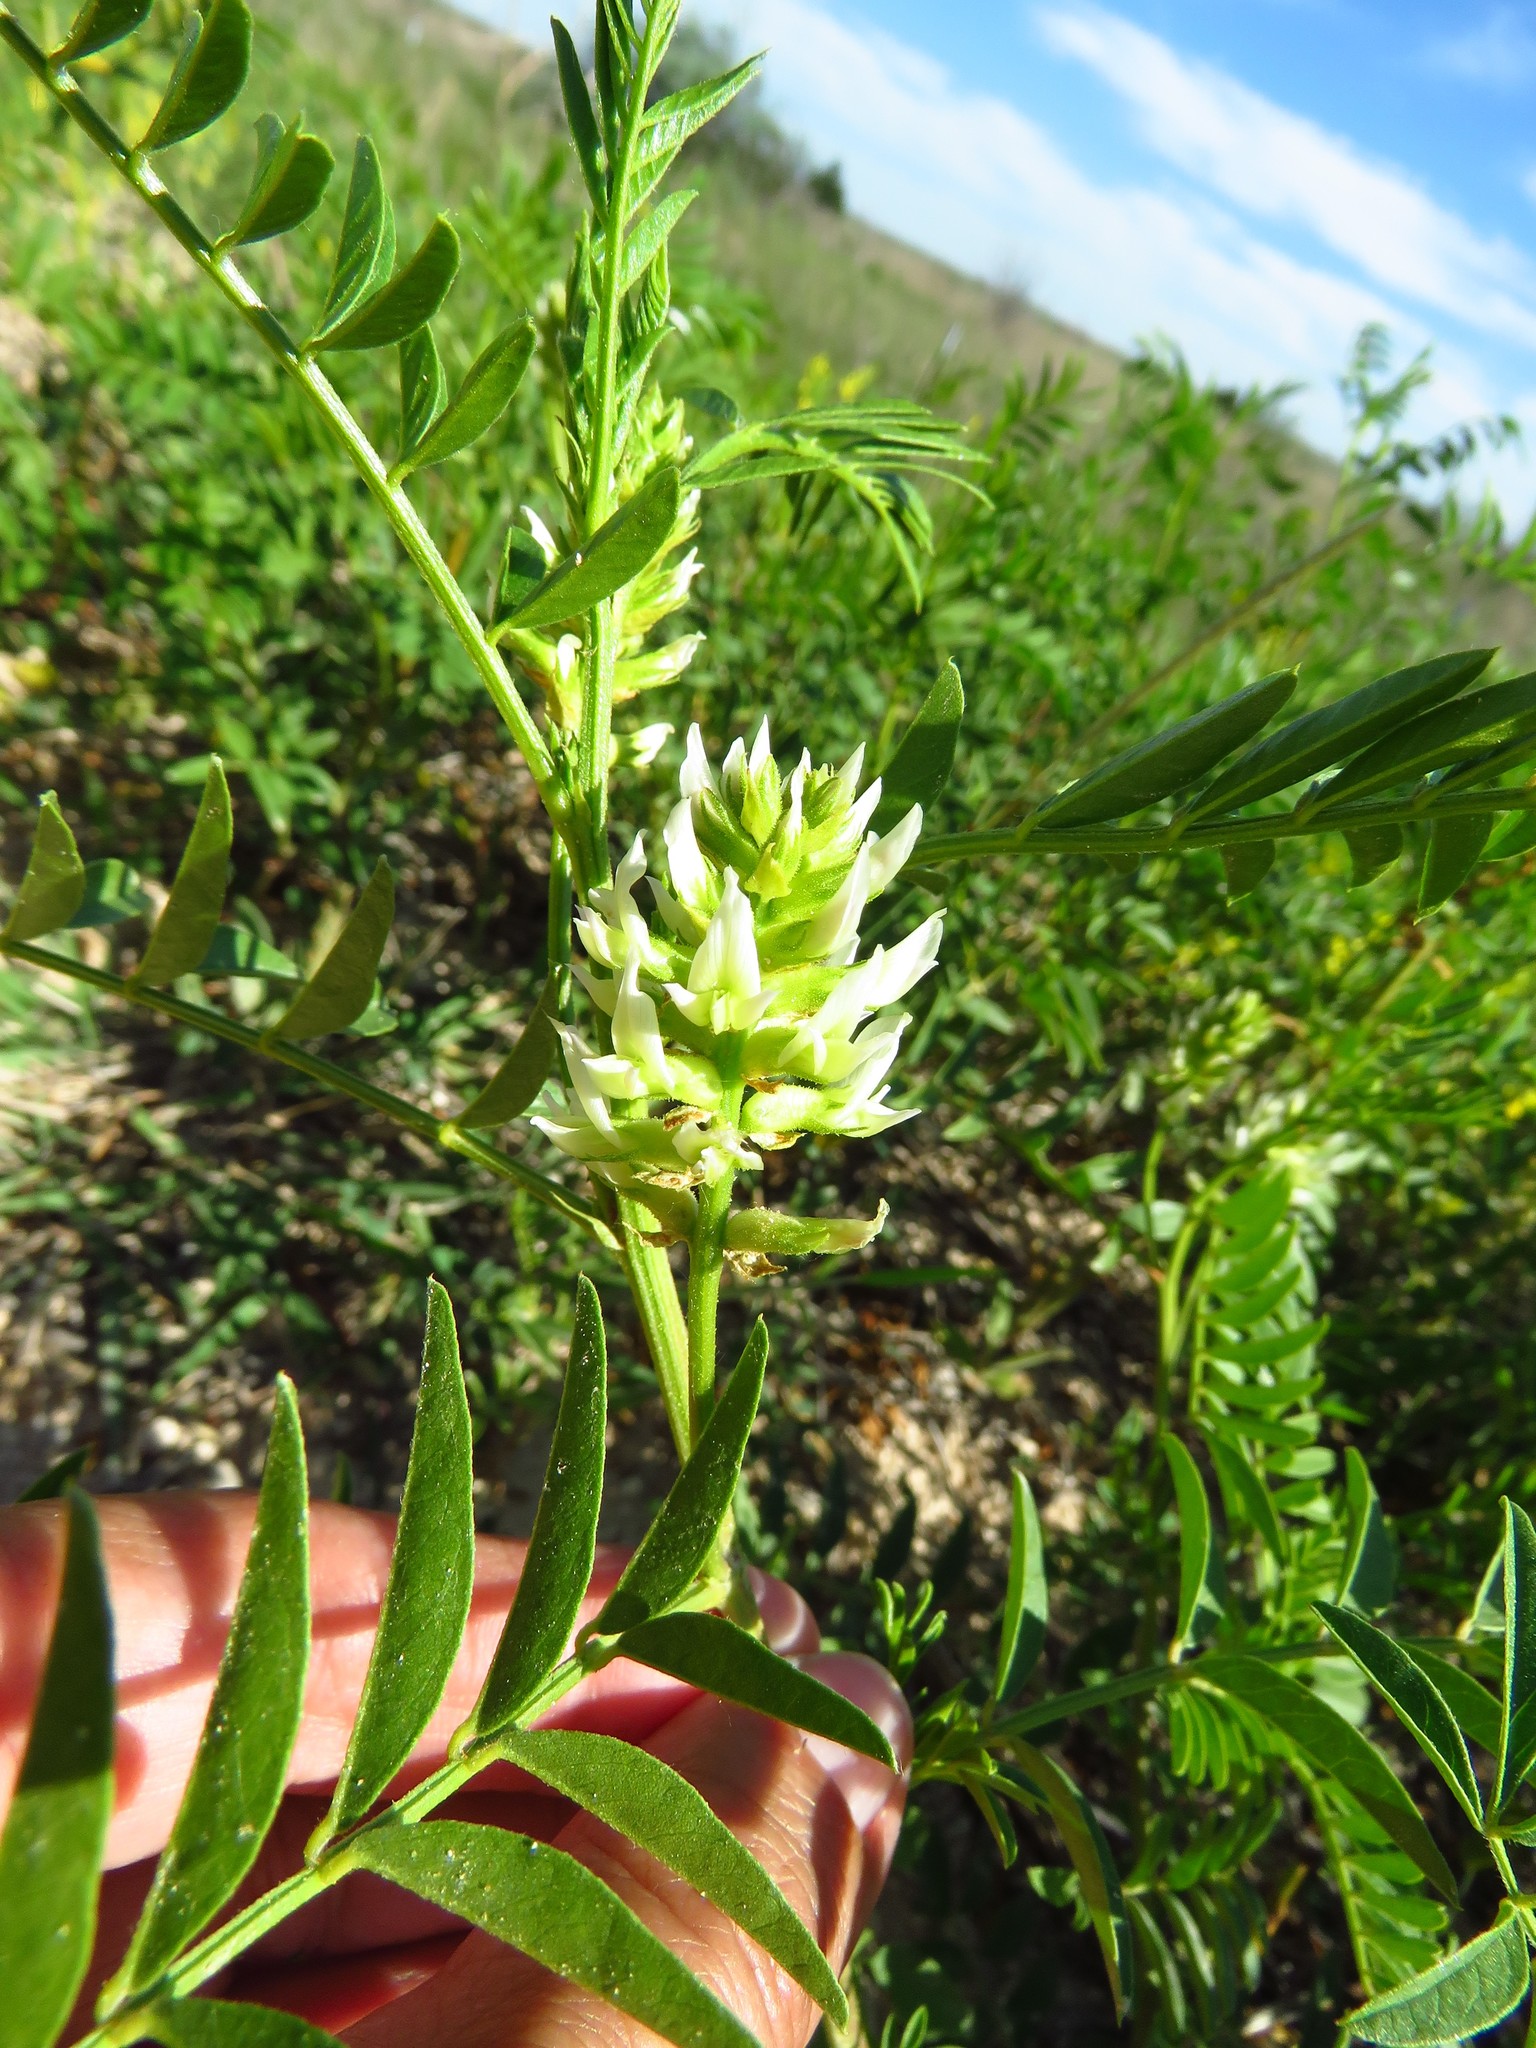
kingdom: Plantae
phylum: Tracheophyta
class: Magnoliopsida
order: Fabales
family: Fabaceae
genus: Glycyrrhiza
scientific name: Glycyrrhiza lepidota
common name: American liquorice
